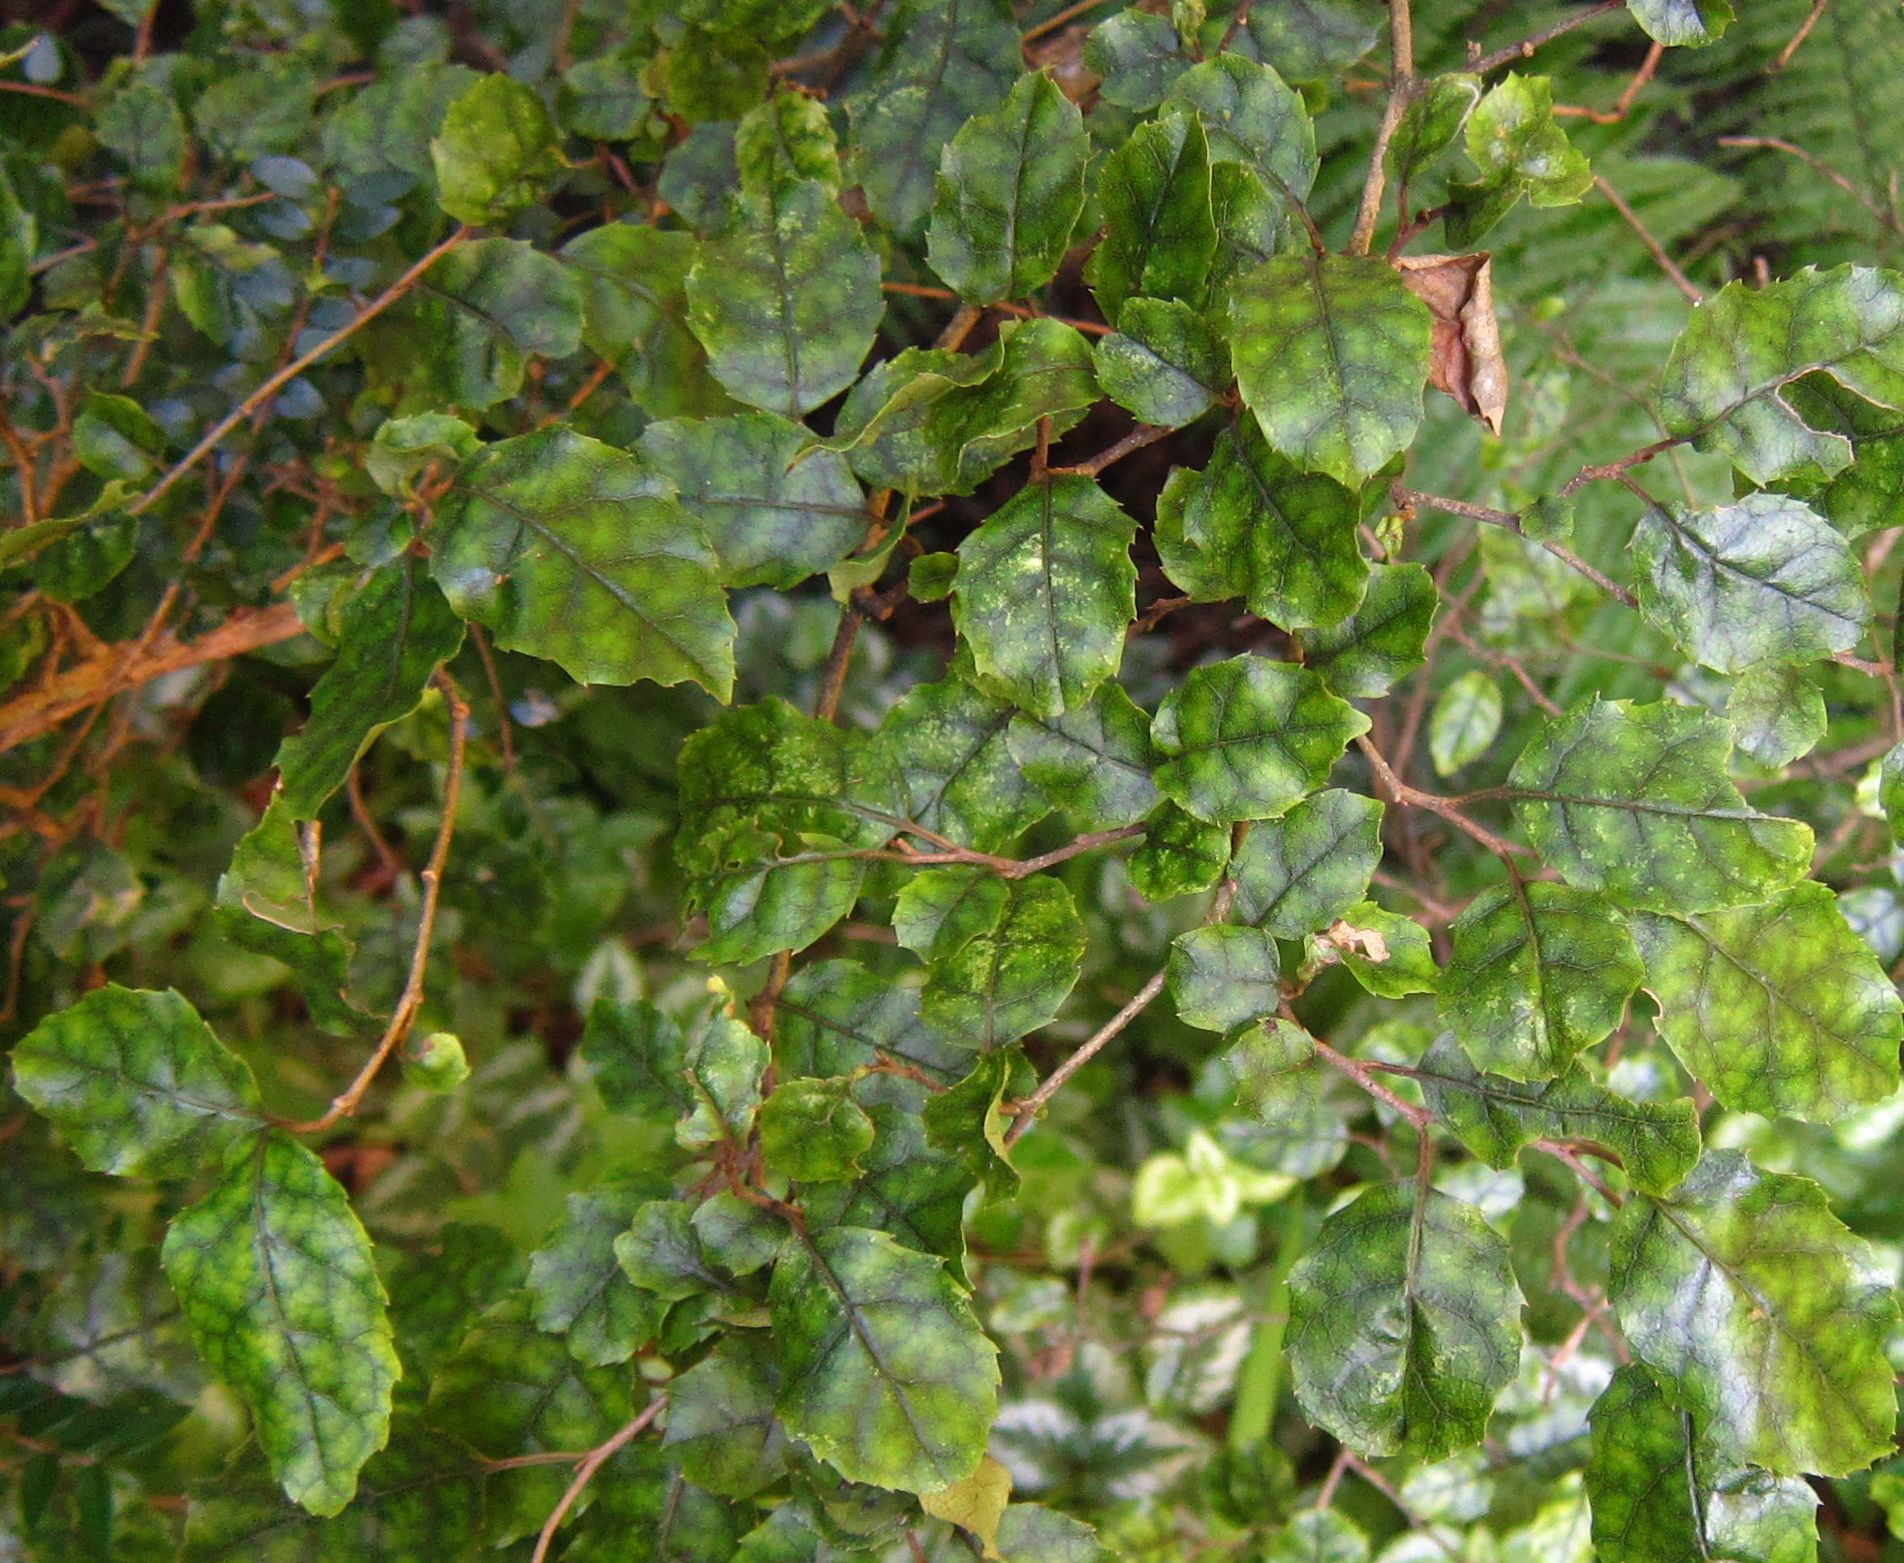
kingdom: Plantae
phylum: Tracheophyta
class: Magnoliopsida
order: Asterales
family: Rousseaceae
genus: Carpodetus
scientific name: Carpodetus serratus
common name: White mapau
